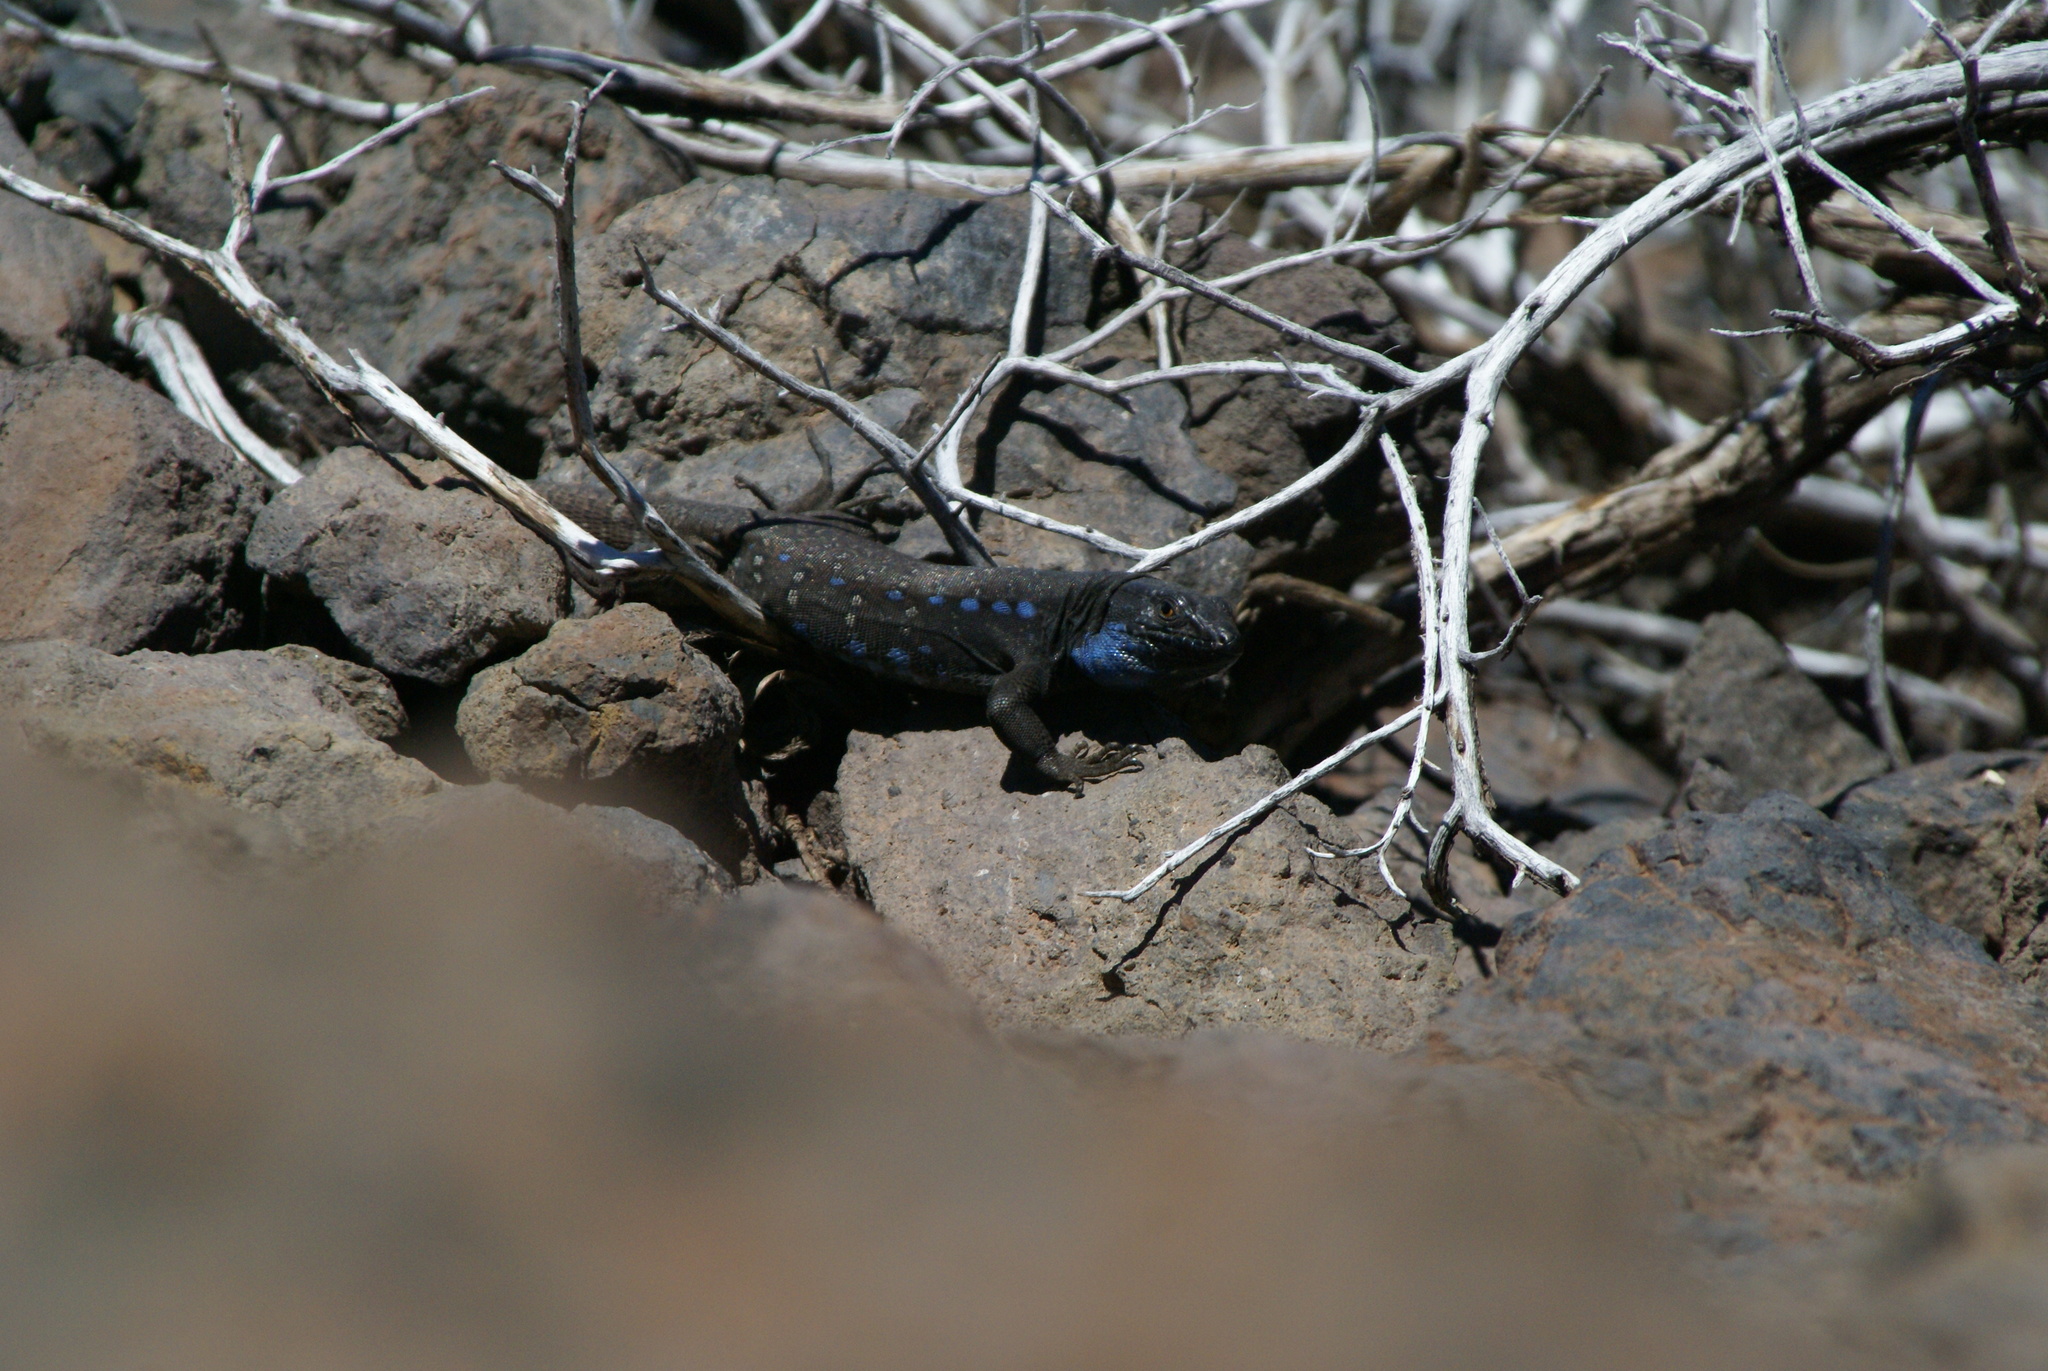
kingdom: Animalia
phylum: Chordata
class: Squamata
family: Lacertidae
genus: Gallotia
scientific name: Gallotia galloti
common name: Gallot's lizard
